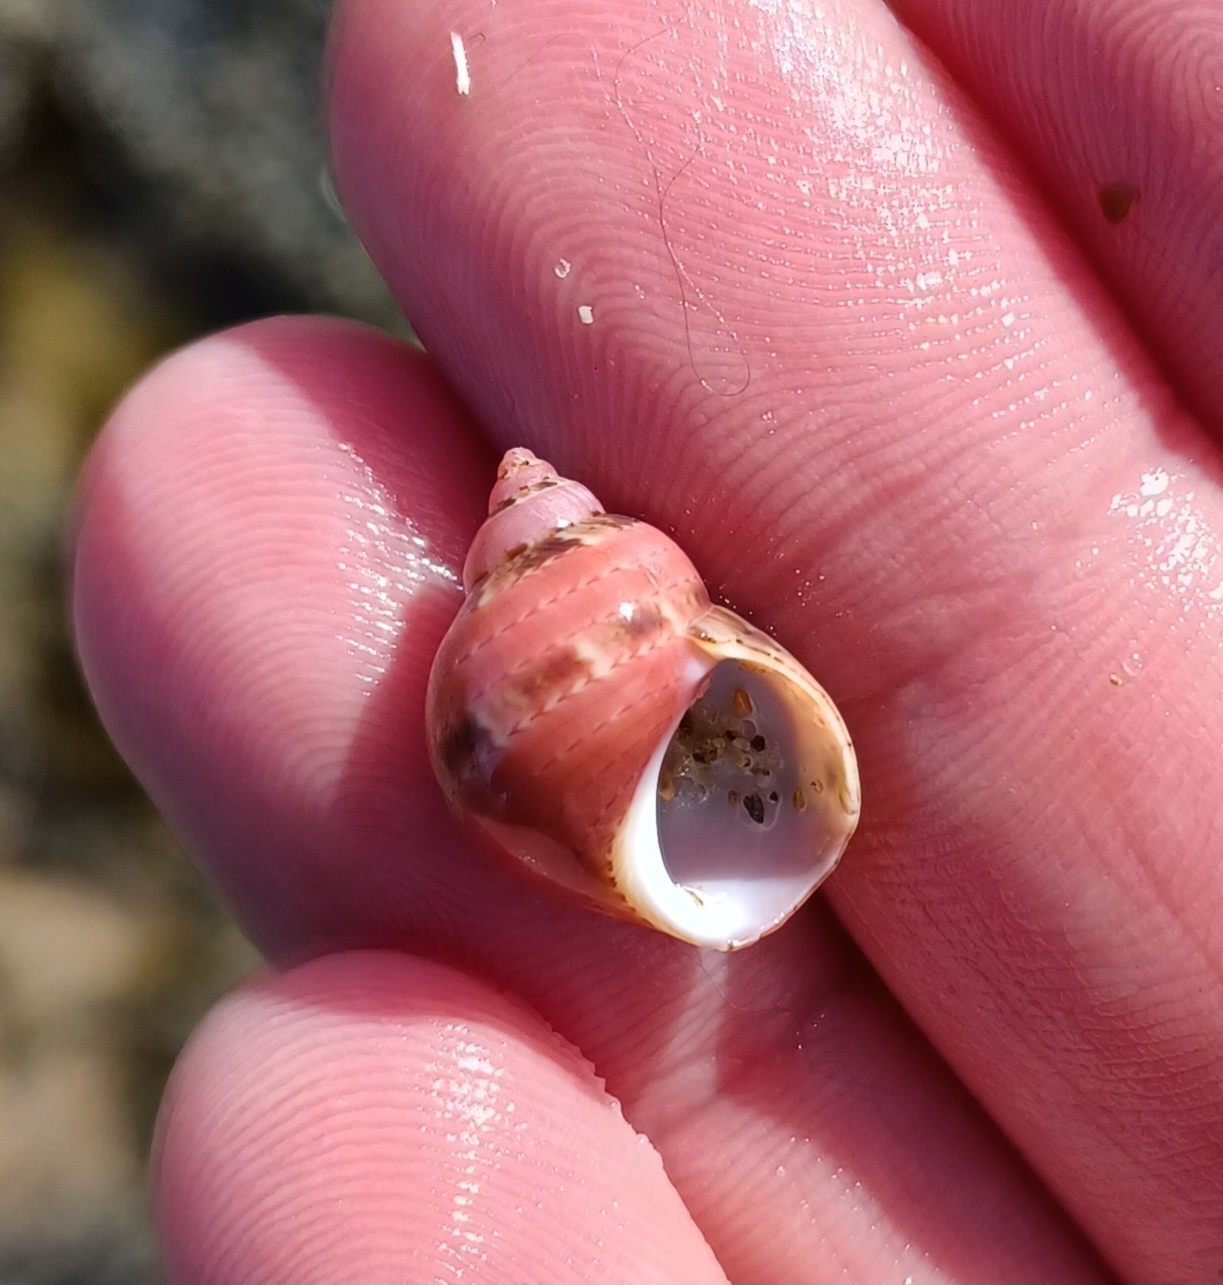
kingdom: Animalia
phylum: Mollusca
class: Gastropoda
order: Trochida
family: Phasianellidae
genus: Phasianella
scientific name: Phasianella ventricosa
